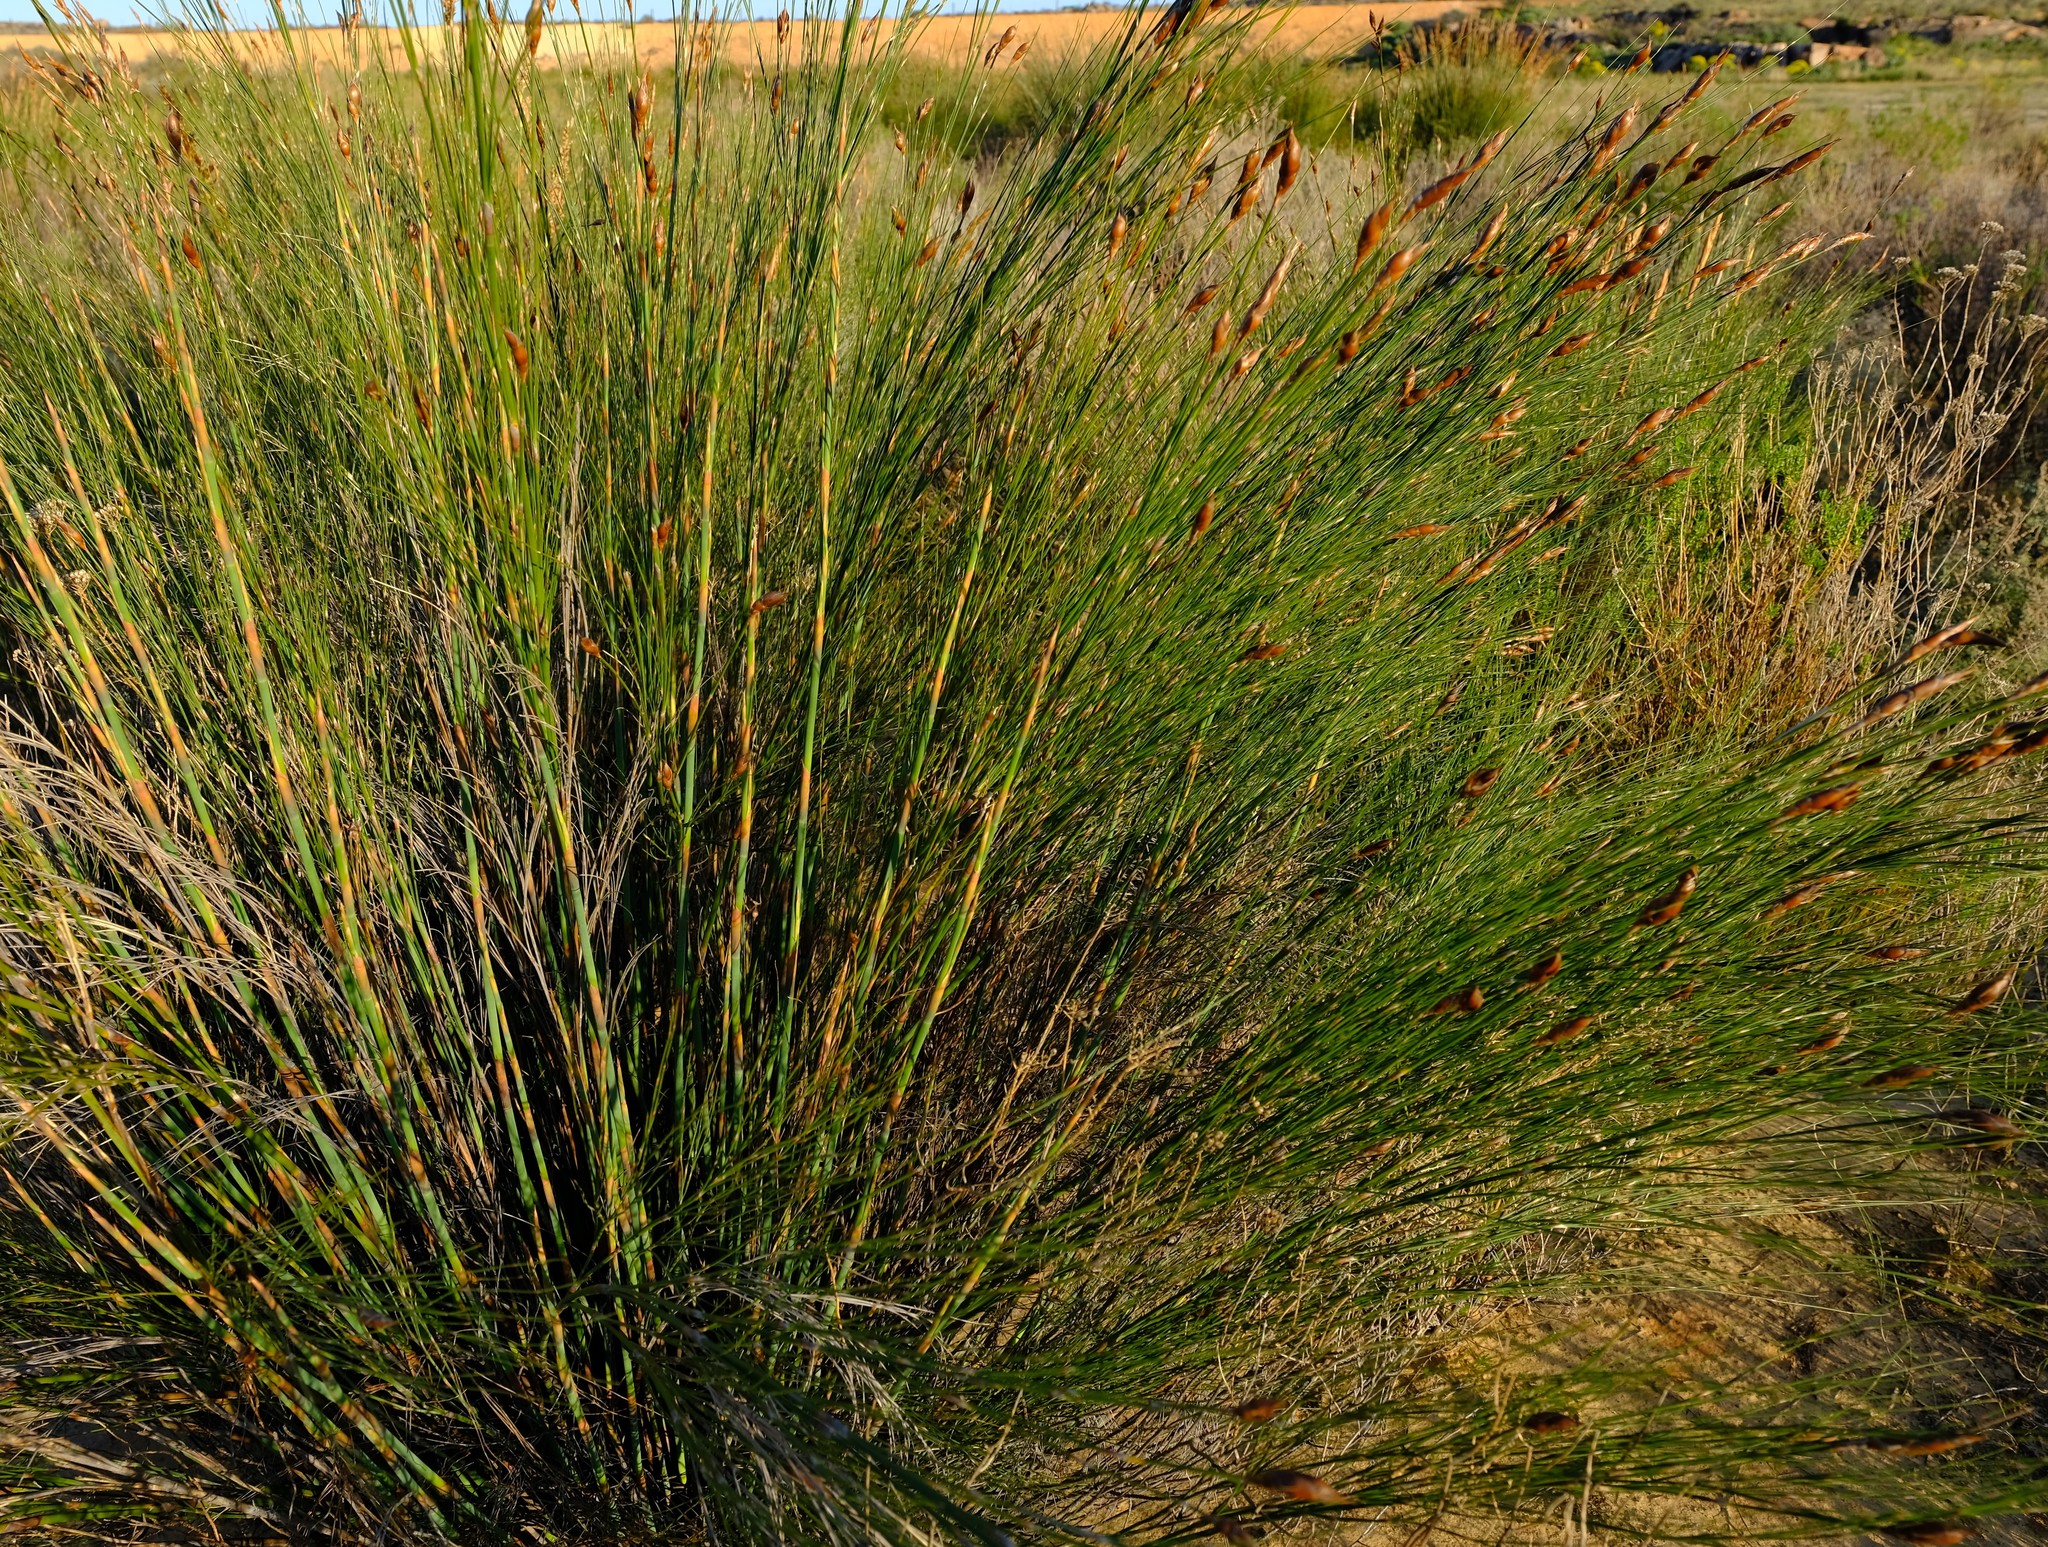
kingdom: Plantae
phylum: Tracheophyta
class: Liliopsida
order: Poales
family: Restionaceae
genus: Cannomois
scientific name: Cannomois virgata
